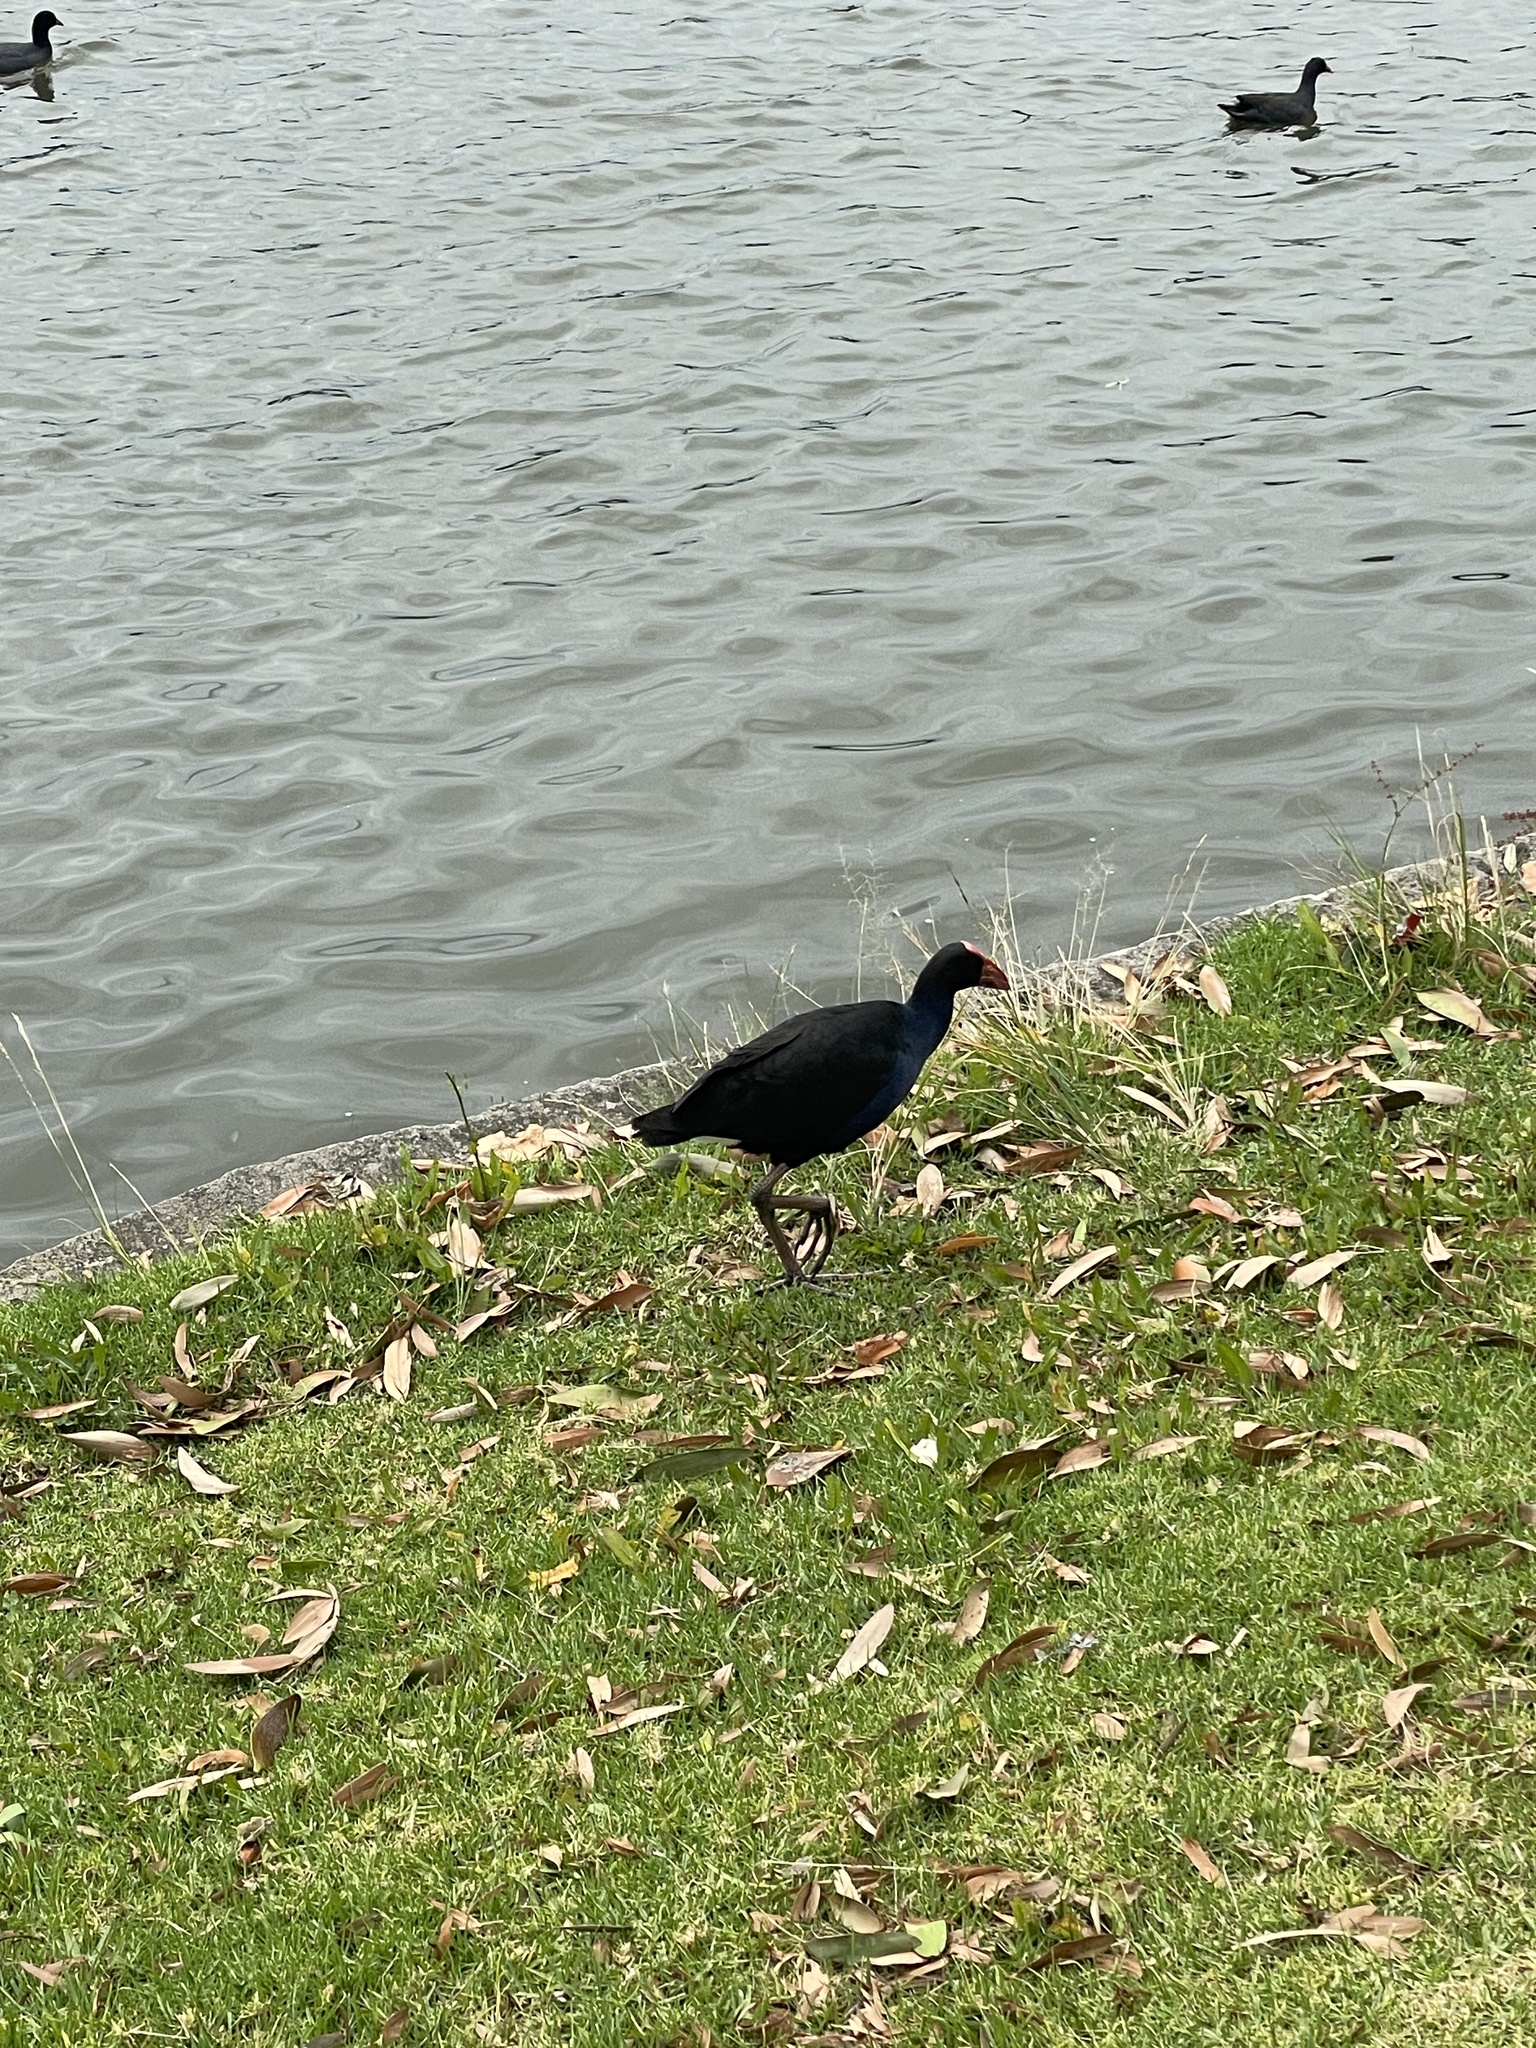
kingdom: Animalia
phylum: Chordata
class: Aves
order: Gruiformes
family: Rallidae
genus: Porphyrio
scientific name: Porphyrio melanotus
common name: Australasian swamphen
